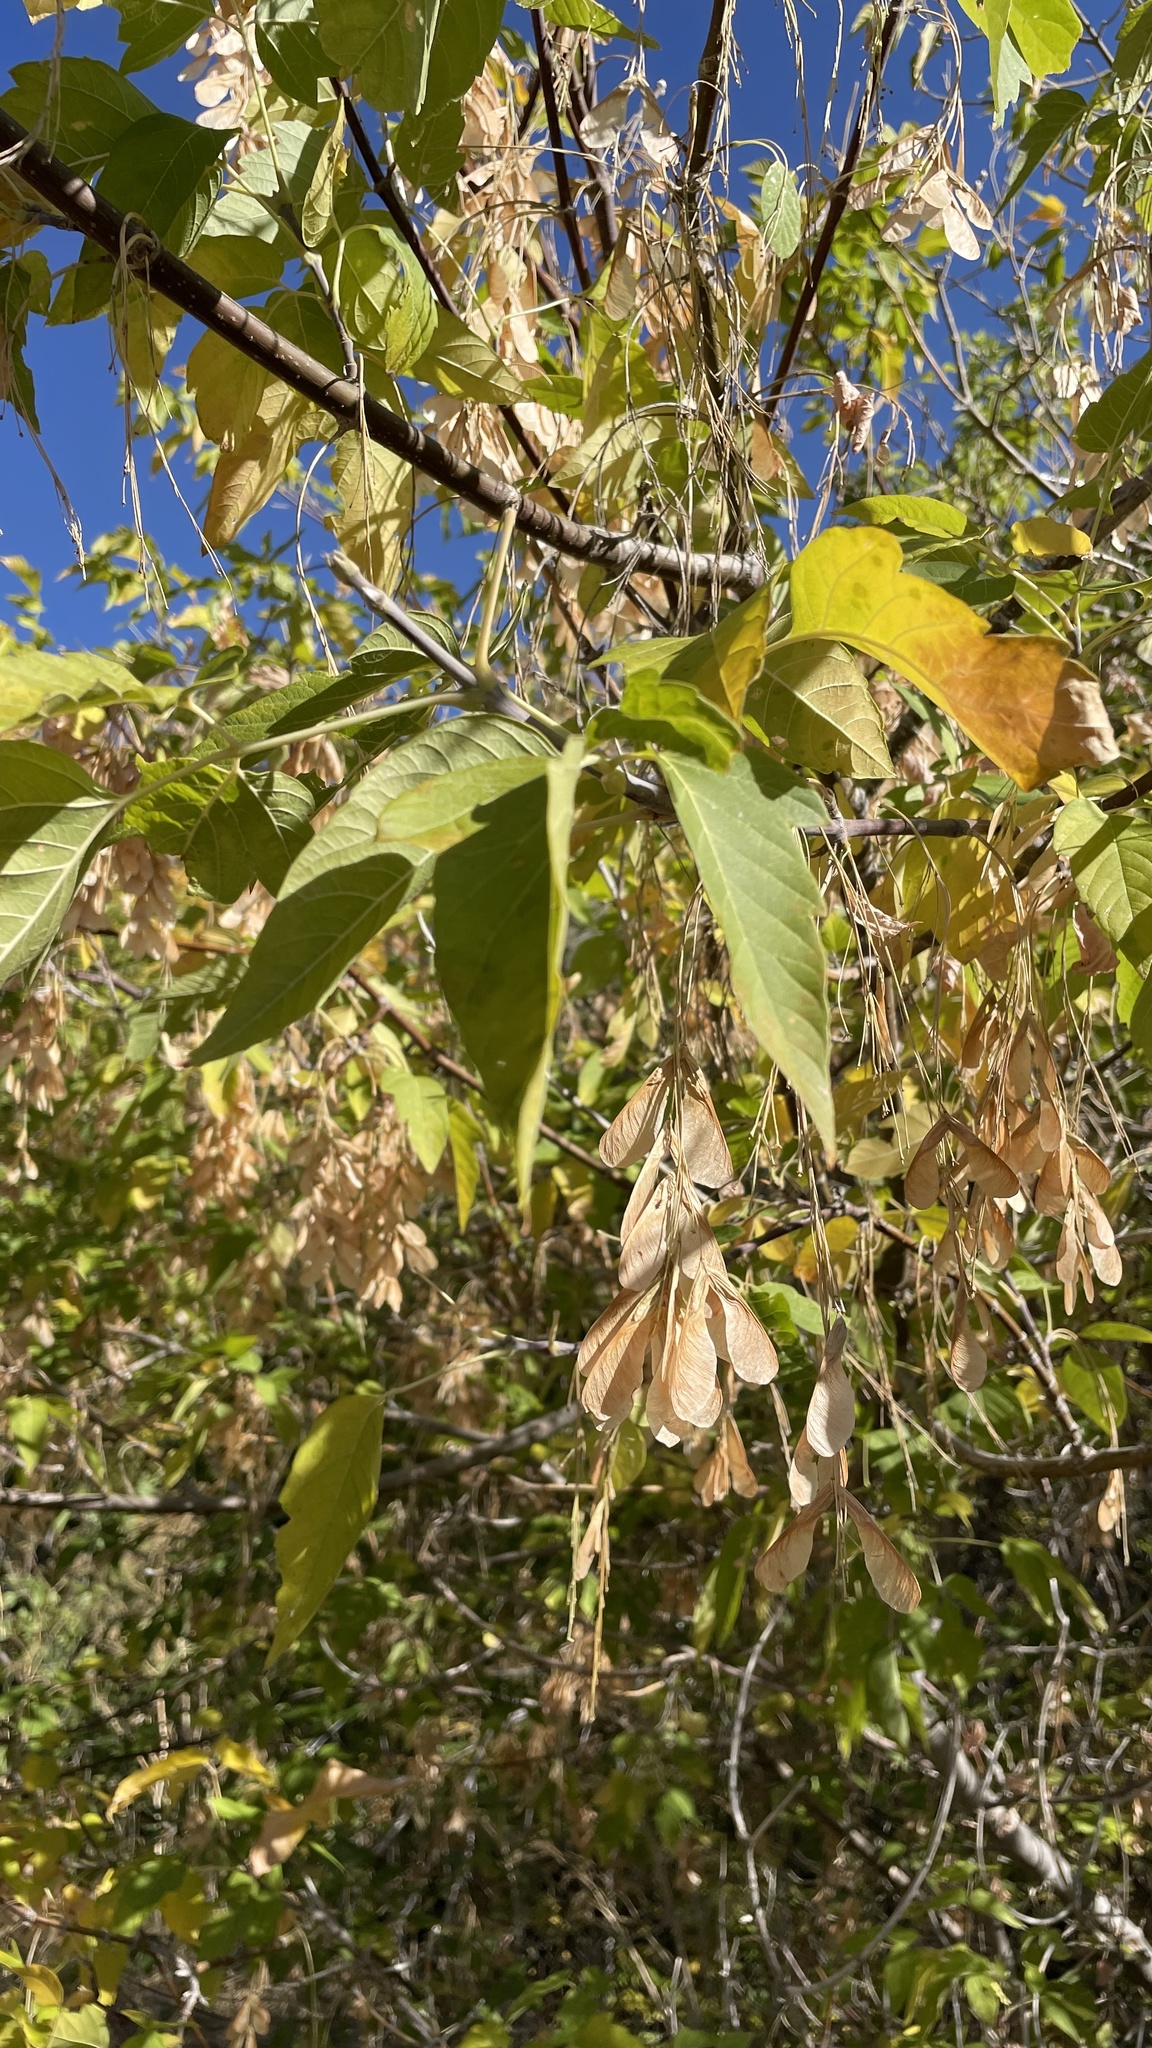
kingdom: Plantae
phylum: Tracheophyta
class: Magnoliopsida
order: Sapindales
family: Sapindaceae
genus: Acer
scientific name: Acer negundo
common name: Ashleaf maple
